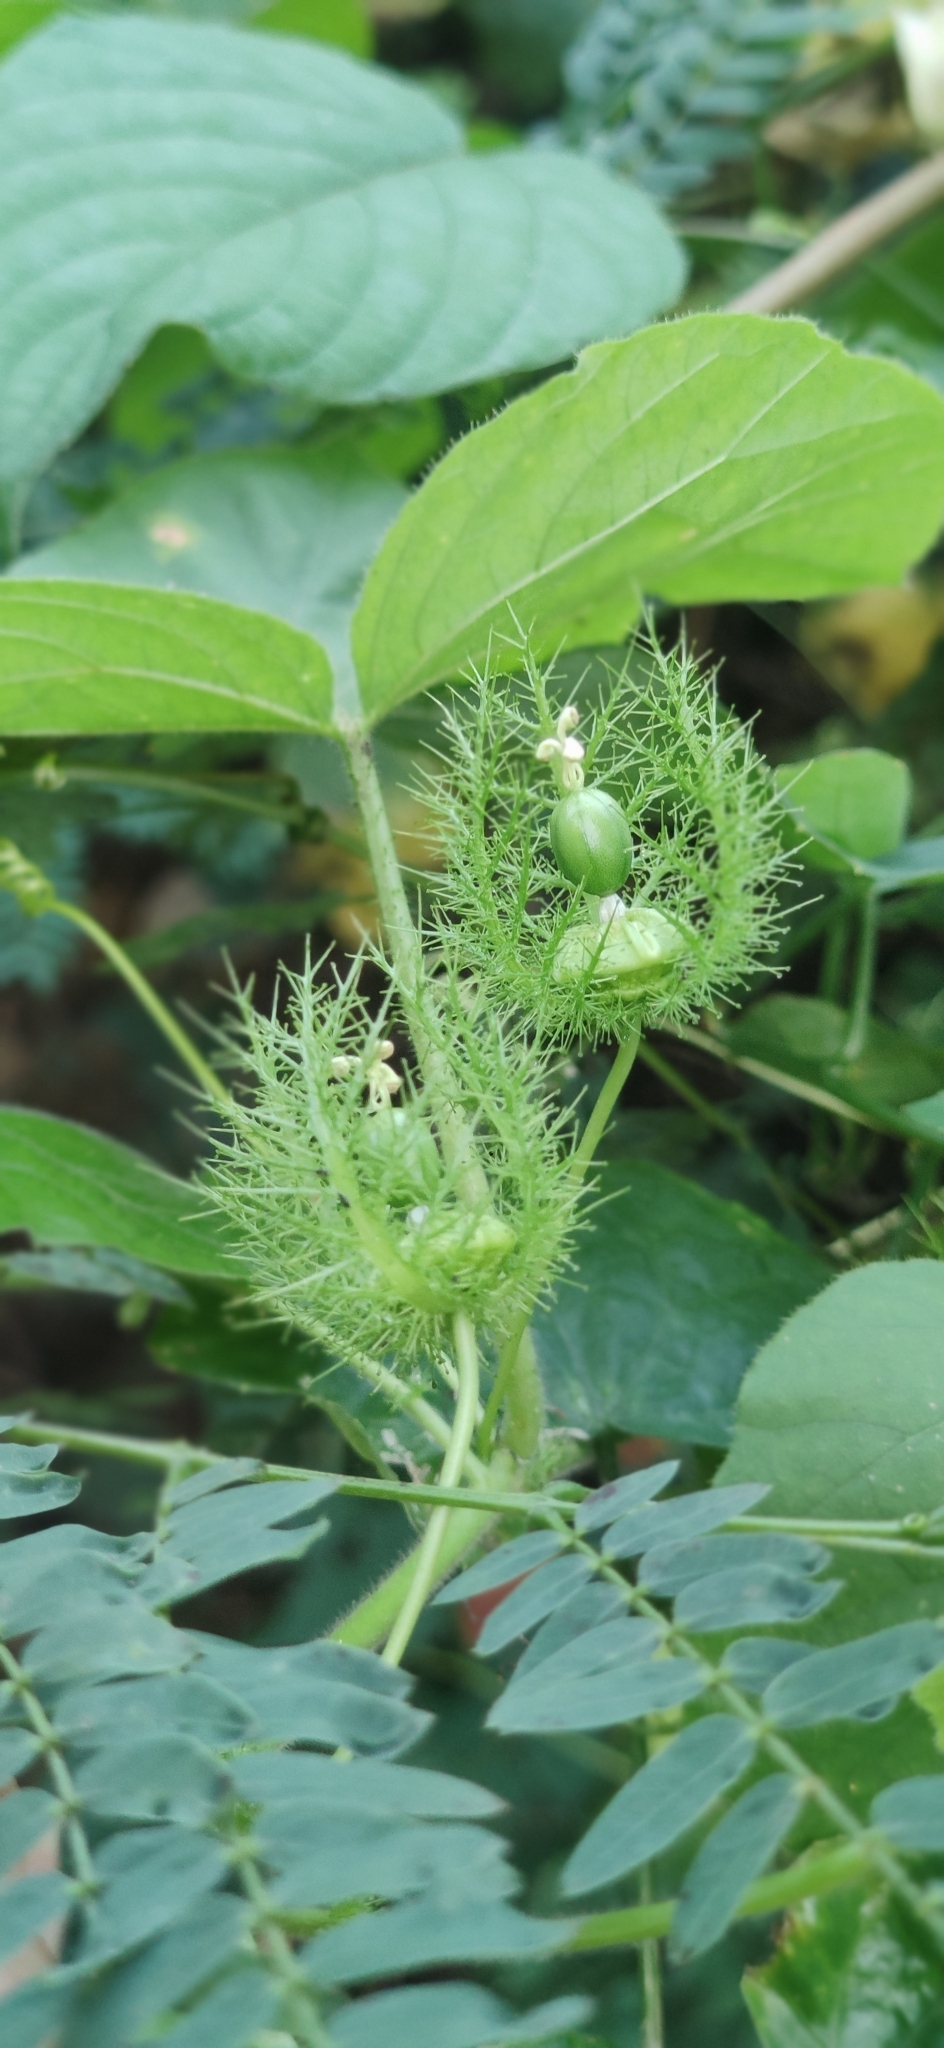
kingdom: Plantae
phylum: Tracheophyta
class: Magnoliopsida
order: Malpighiales
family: Passifloraceae
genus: Passiflora
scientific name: Passiflora foetida
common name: Fetid passionflower
